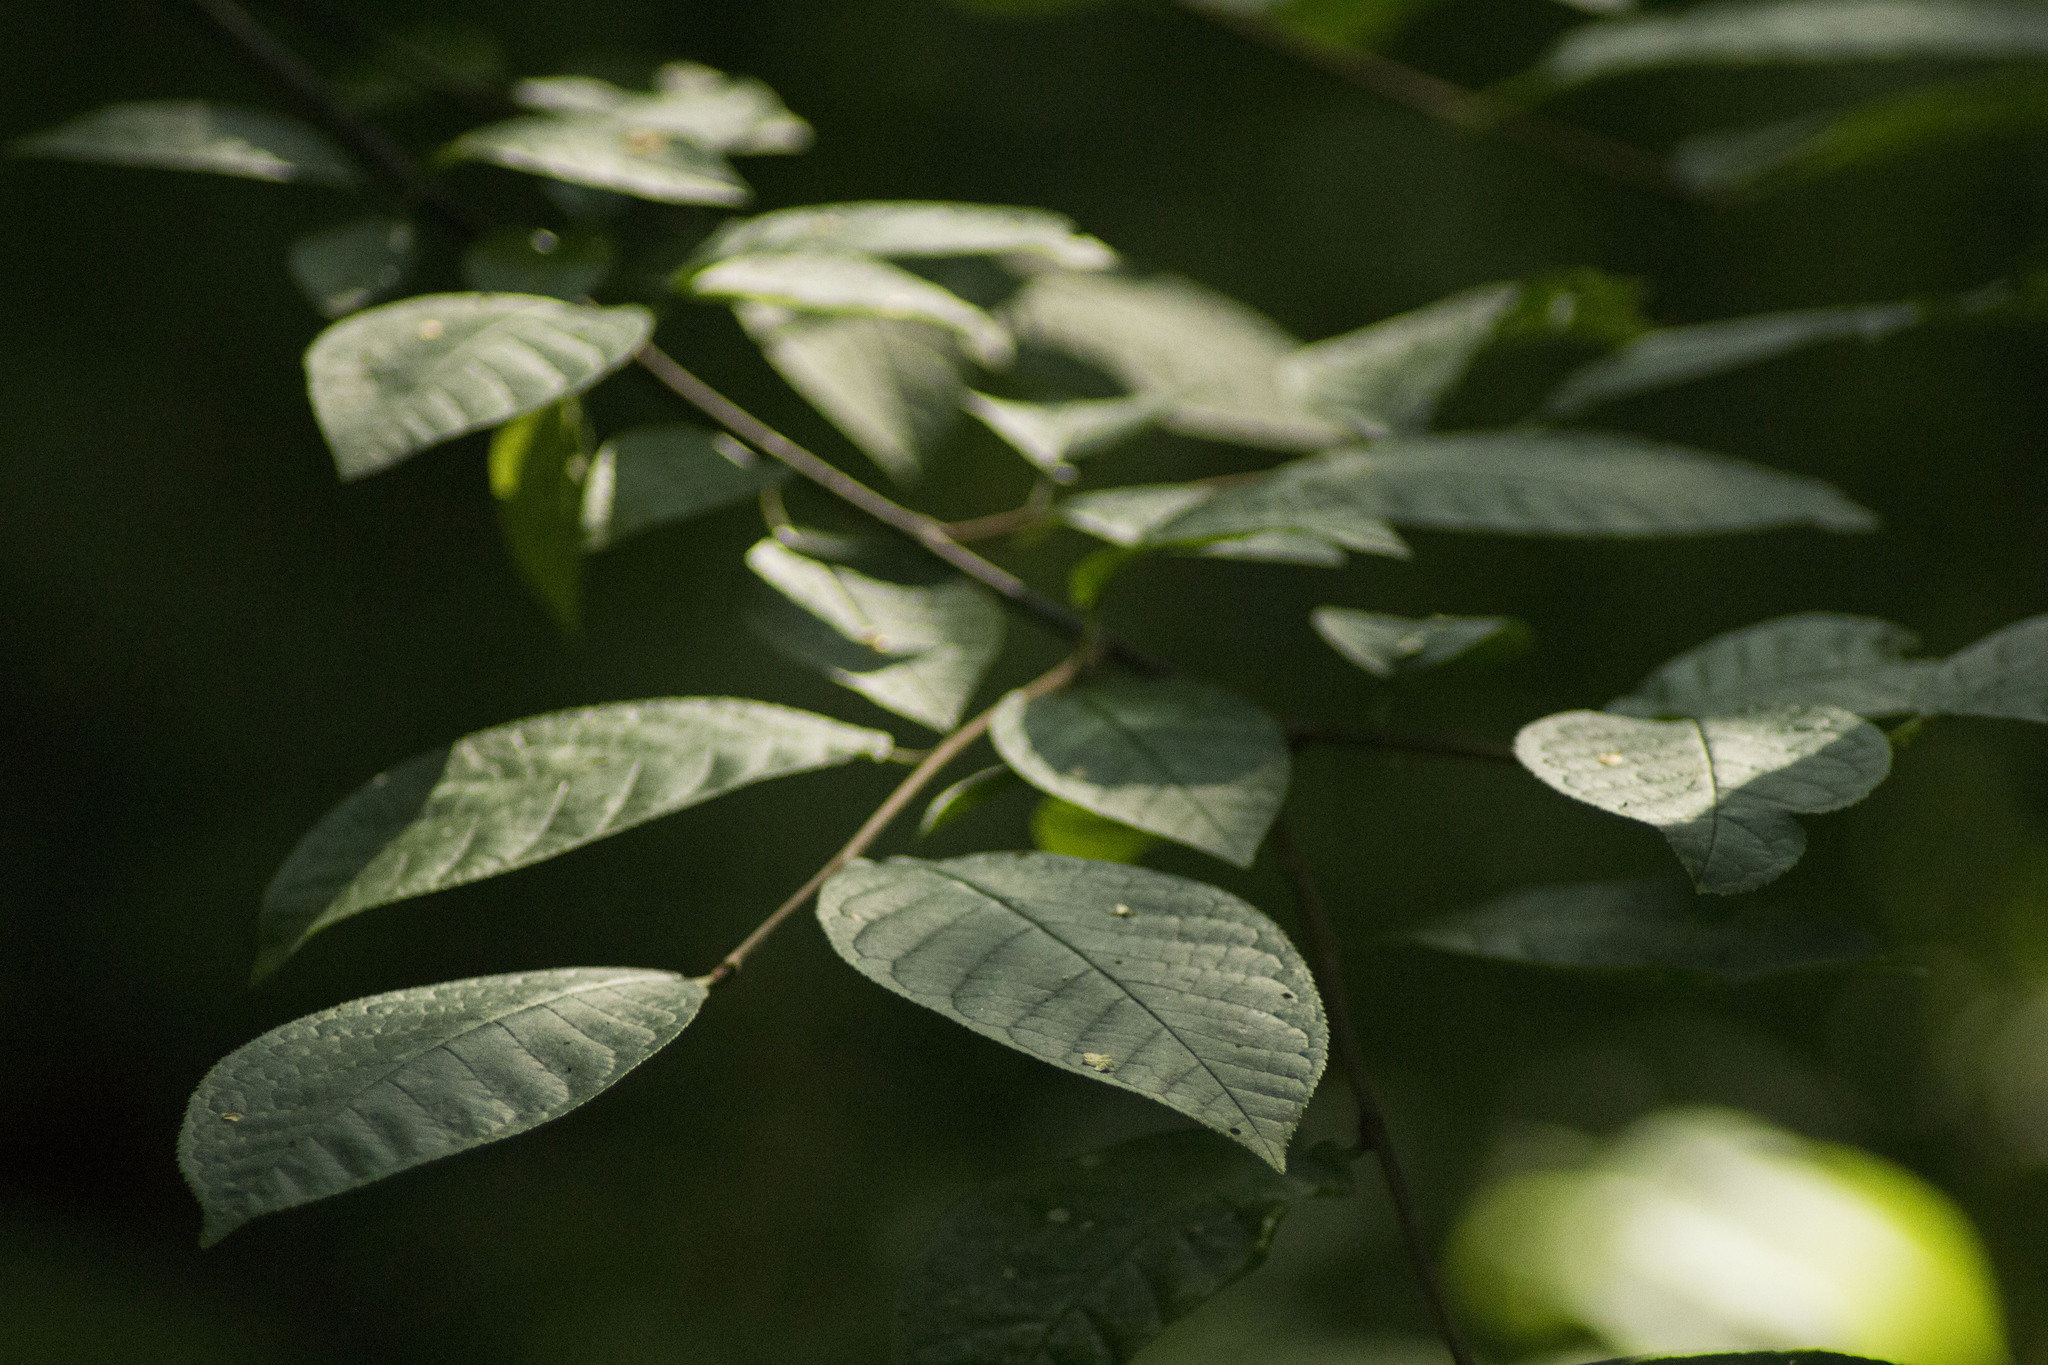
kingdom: Plantae
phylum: Tracheophyta
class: Magnoliopsida
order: Rosales
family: Rosaceae
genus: Prunus
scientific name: Prunus padus
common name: Bird cherry
